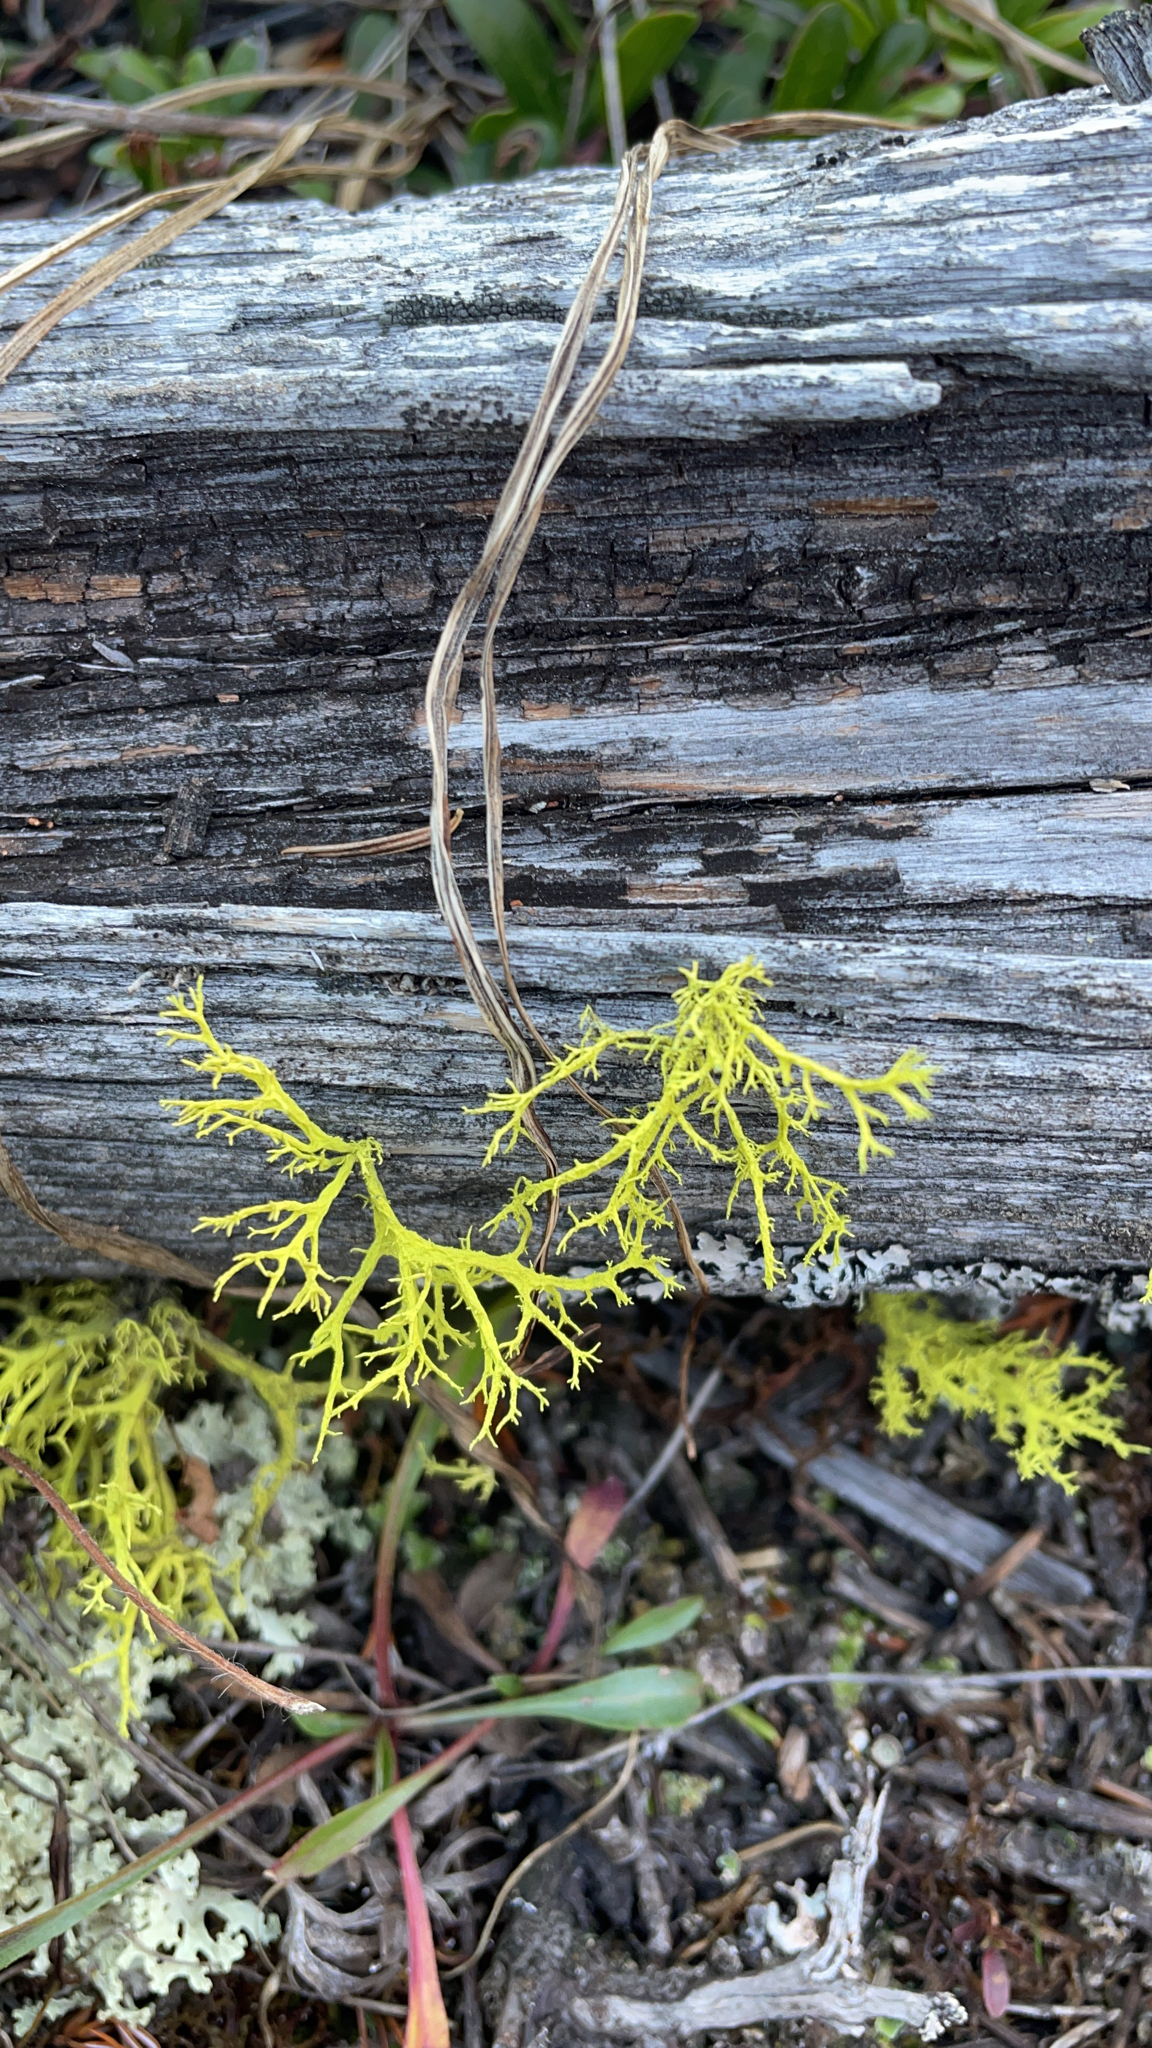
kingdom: Fungi
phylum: Ascomycota
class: Lecanoromycetes
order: Lecanorales
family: Parmeliaceae
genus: Letharia
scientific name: Letharia vulpina
